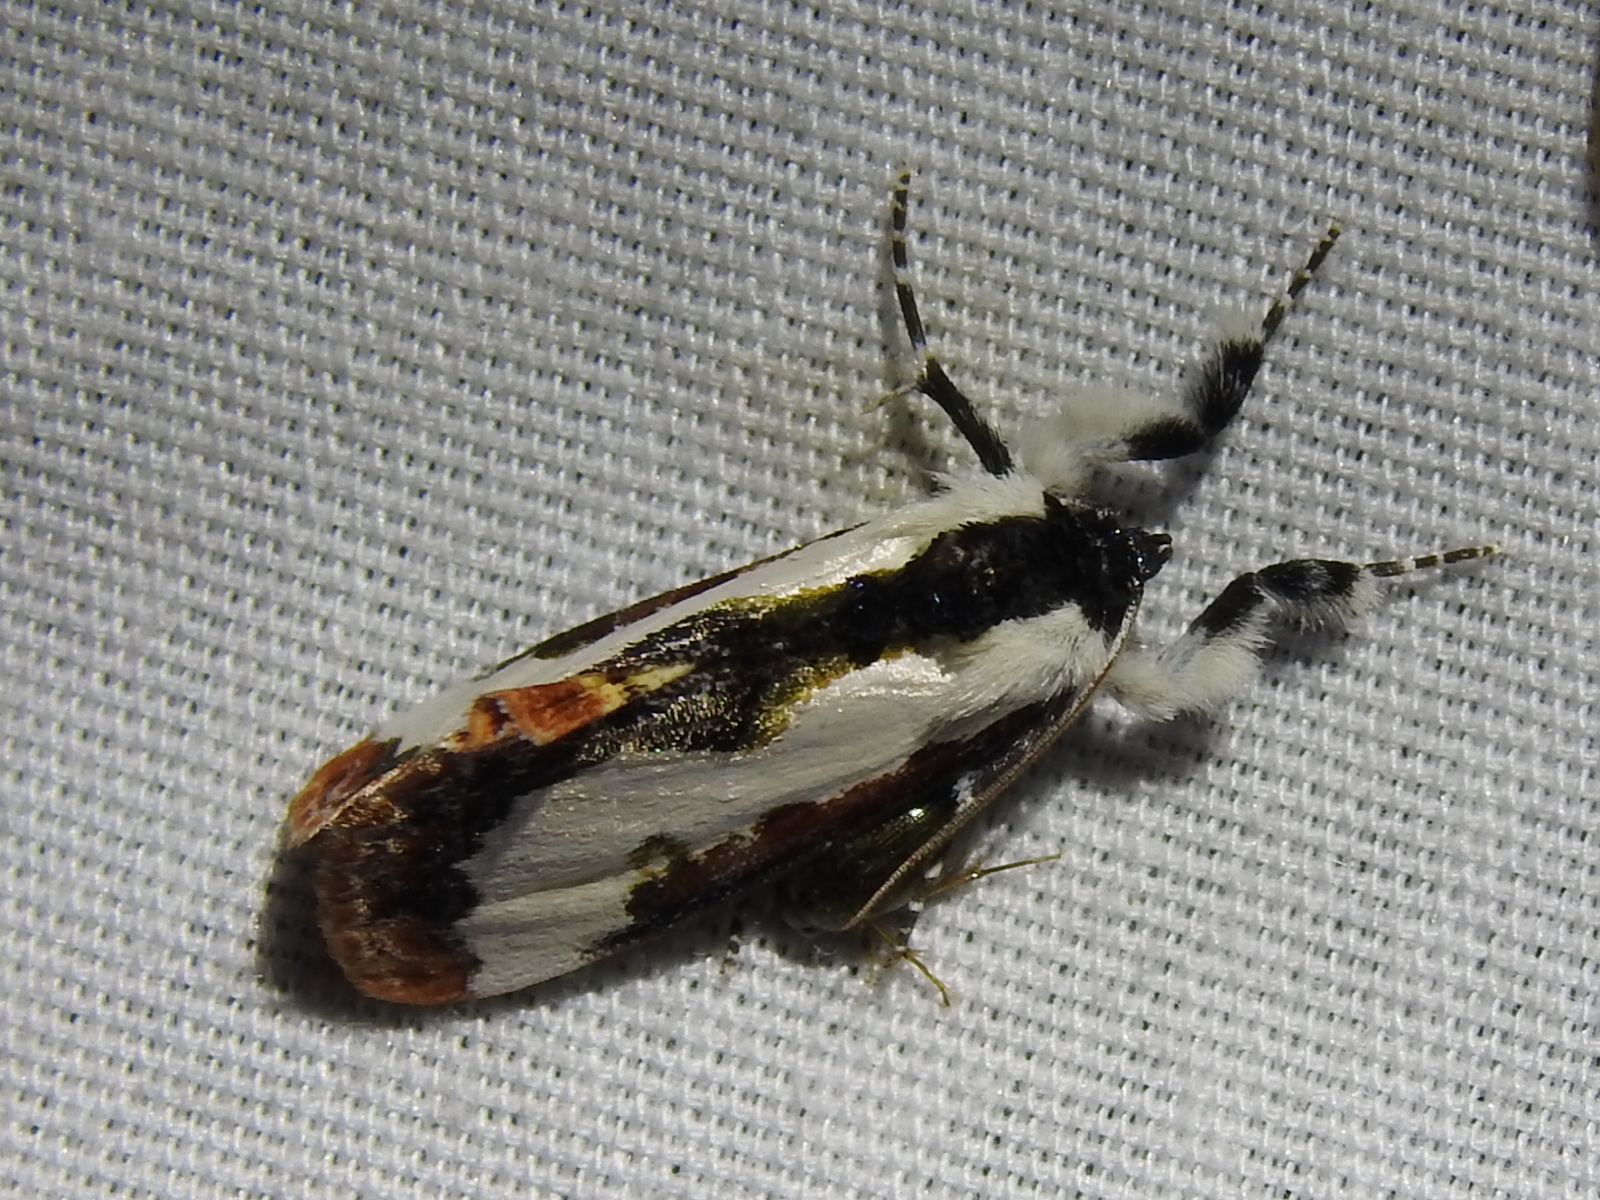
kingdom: Animalia
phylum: Arthropoda
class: Insecta
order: Lepidoptera
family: Noctuidae
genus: Eudryas
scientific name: Eudryas unio
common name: Pearly wood-nymph
